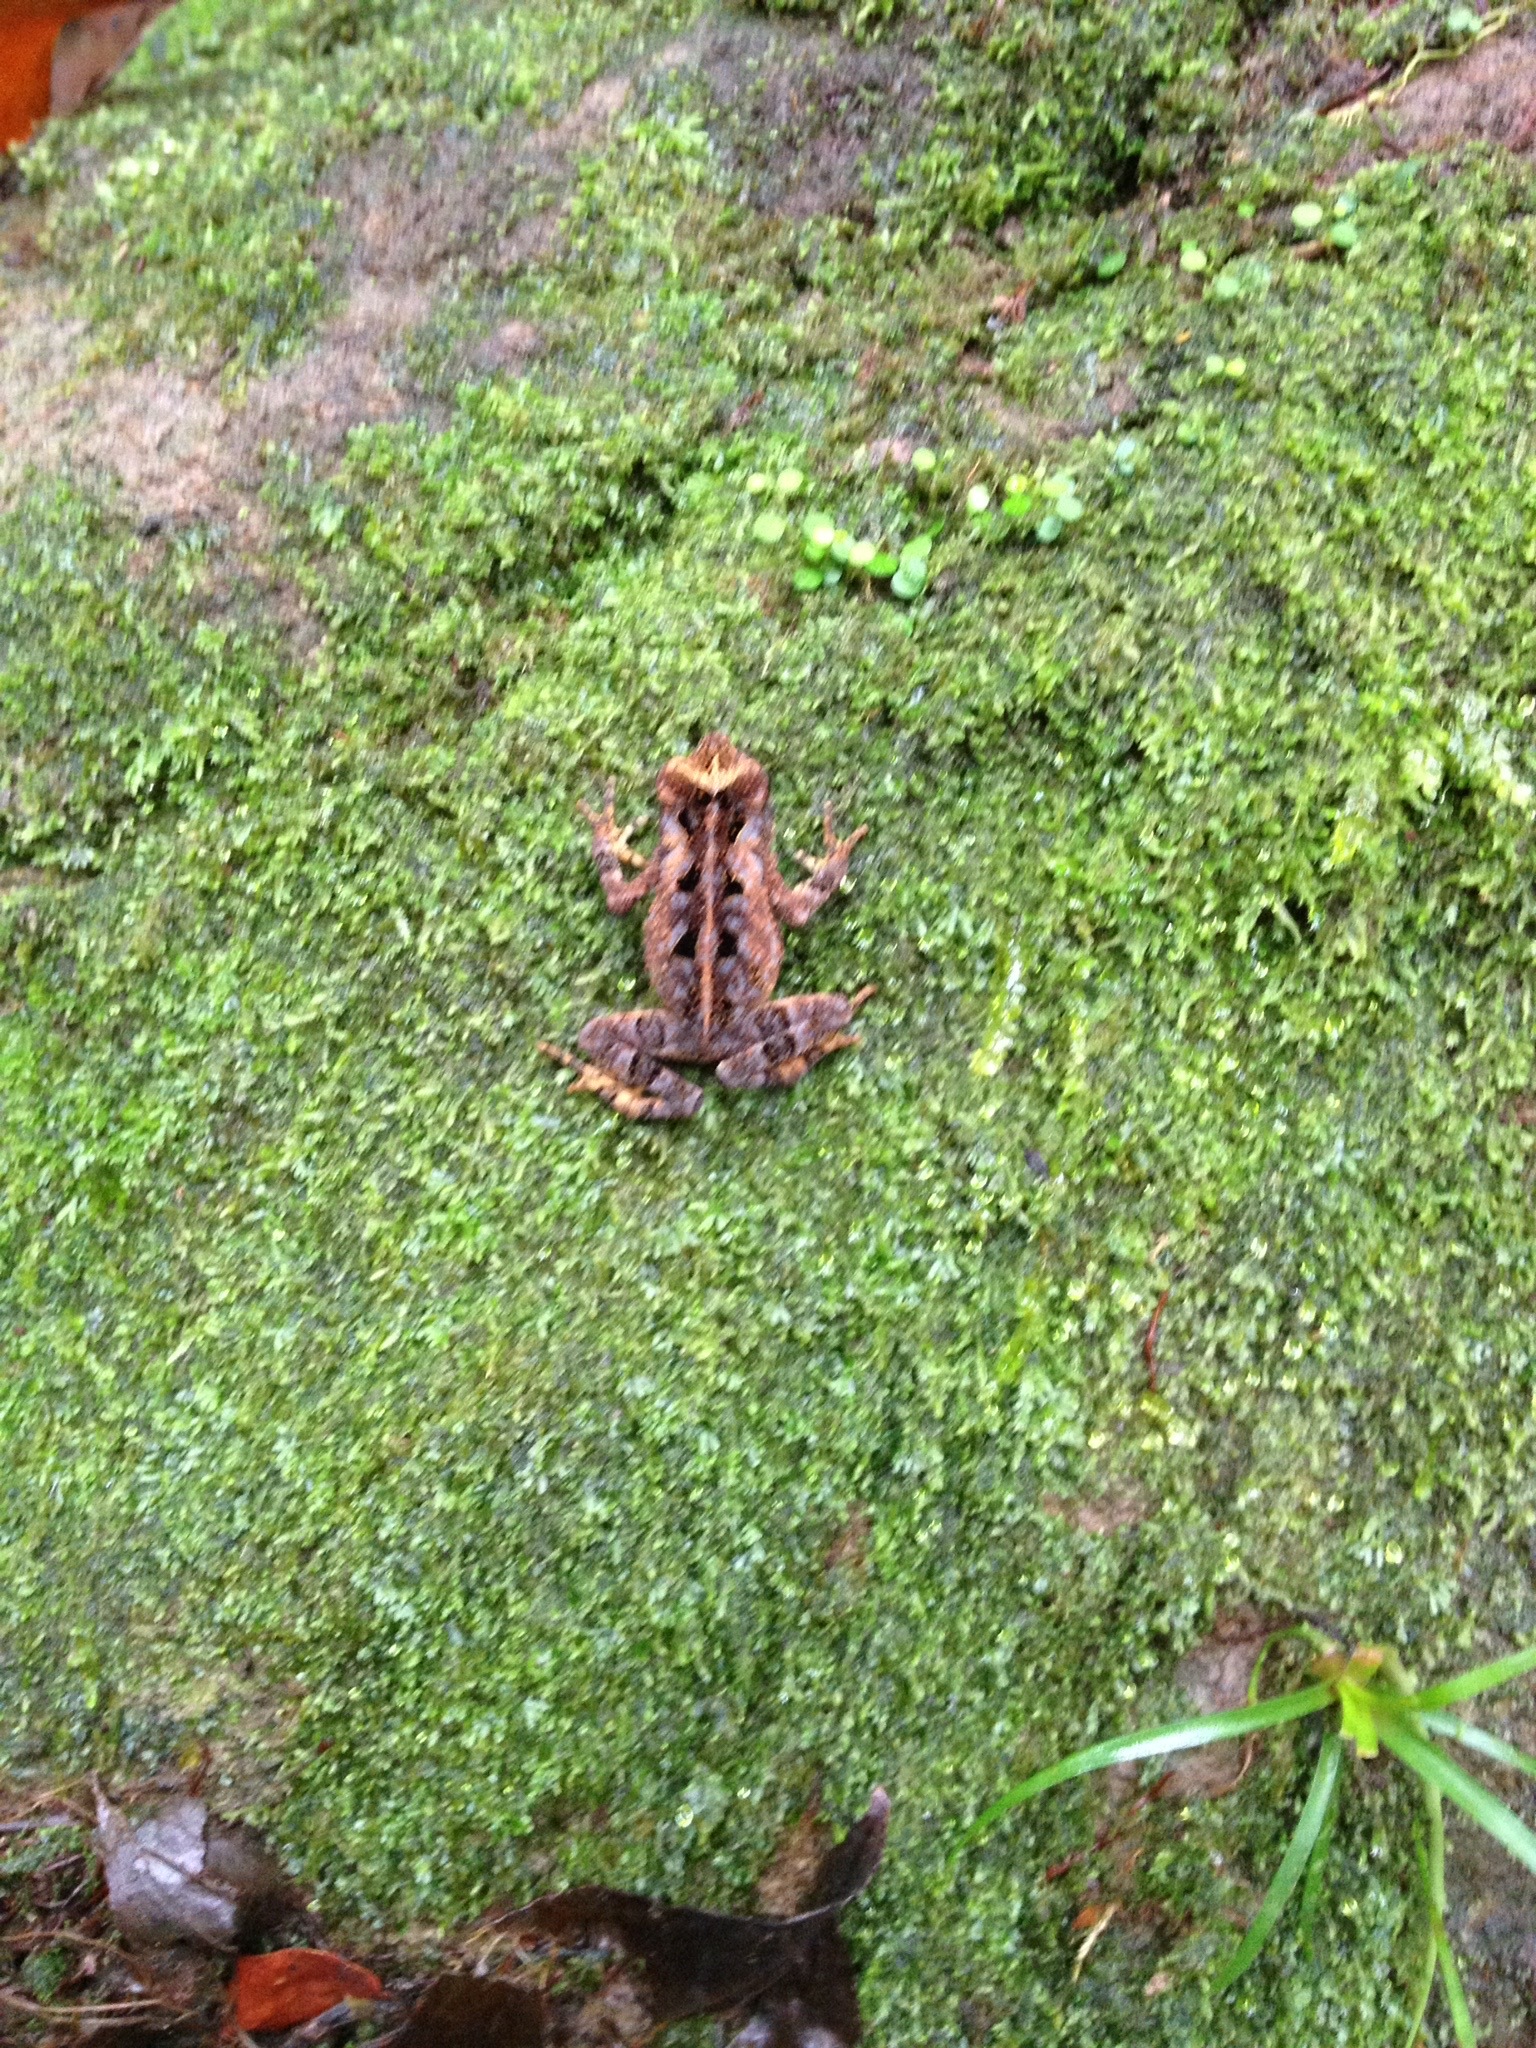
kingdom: Animalia
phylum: Chordata
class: Amphibia
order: Anura
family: Bufonidae
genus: Incilius
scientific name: Incilius melanochlorus
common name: Dark green toad
